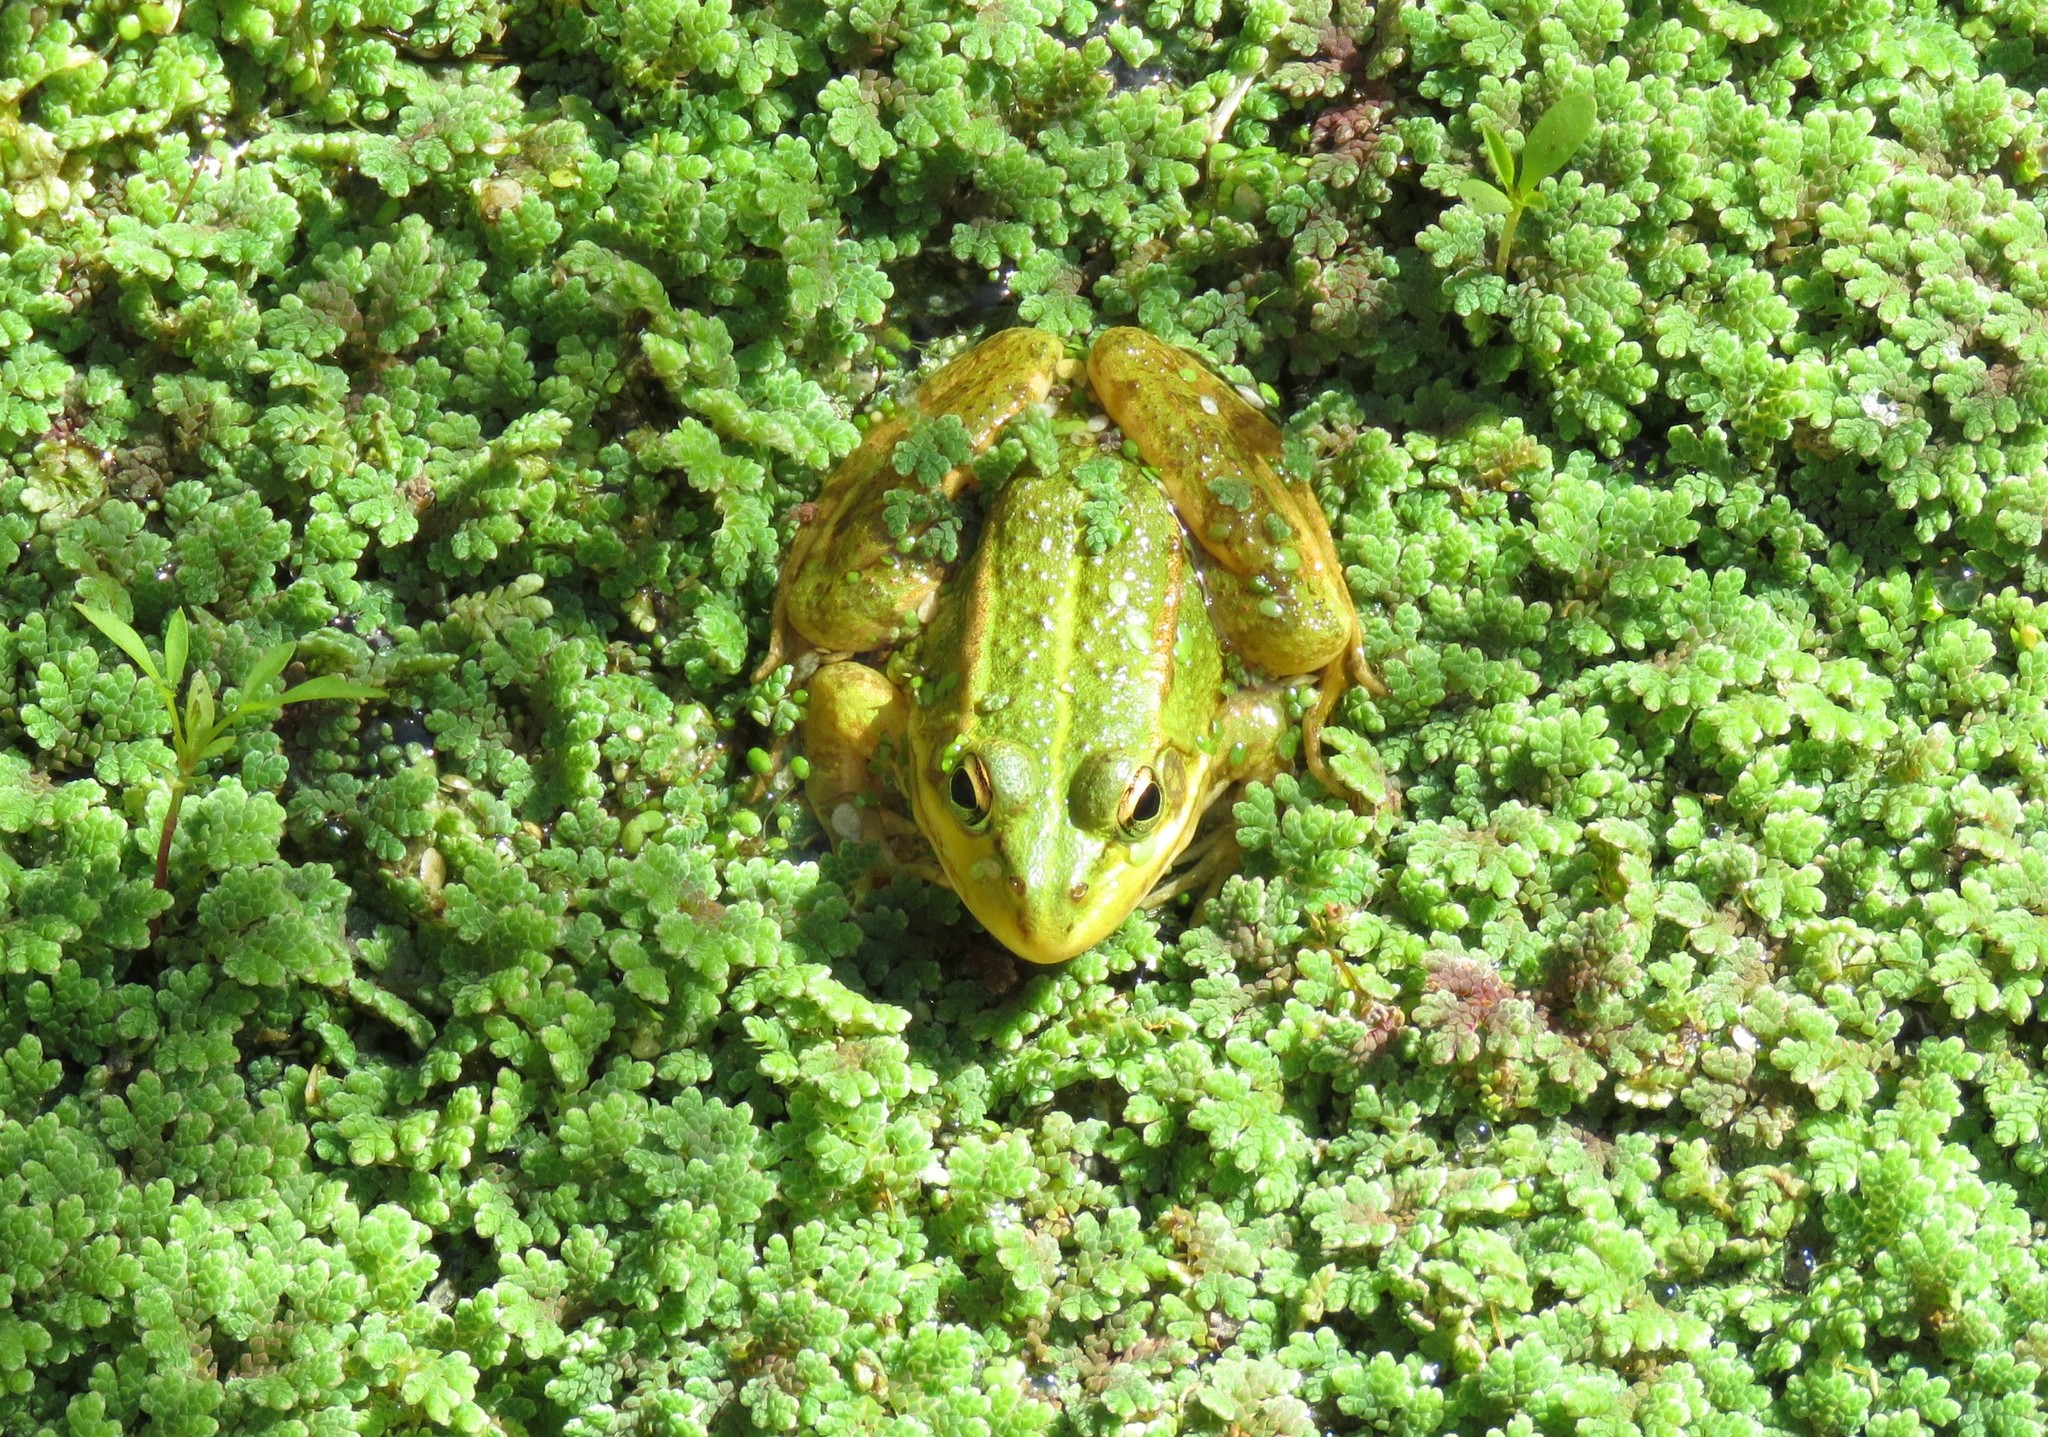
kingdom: Animalia
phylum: Chordata
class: Amphibia
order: Anura
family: Ranidae
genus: Pelophylax
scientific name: Pelophylax perezi
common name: Perez's frog
